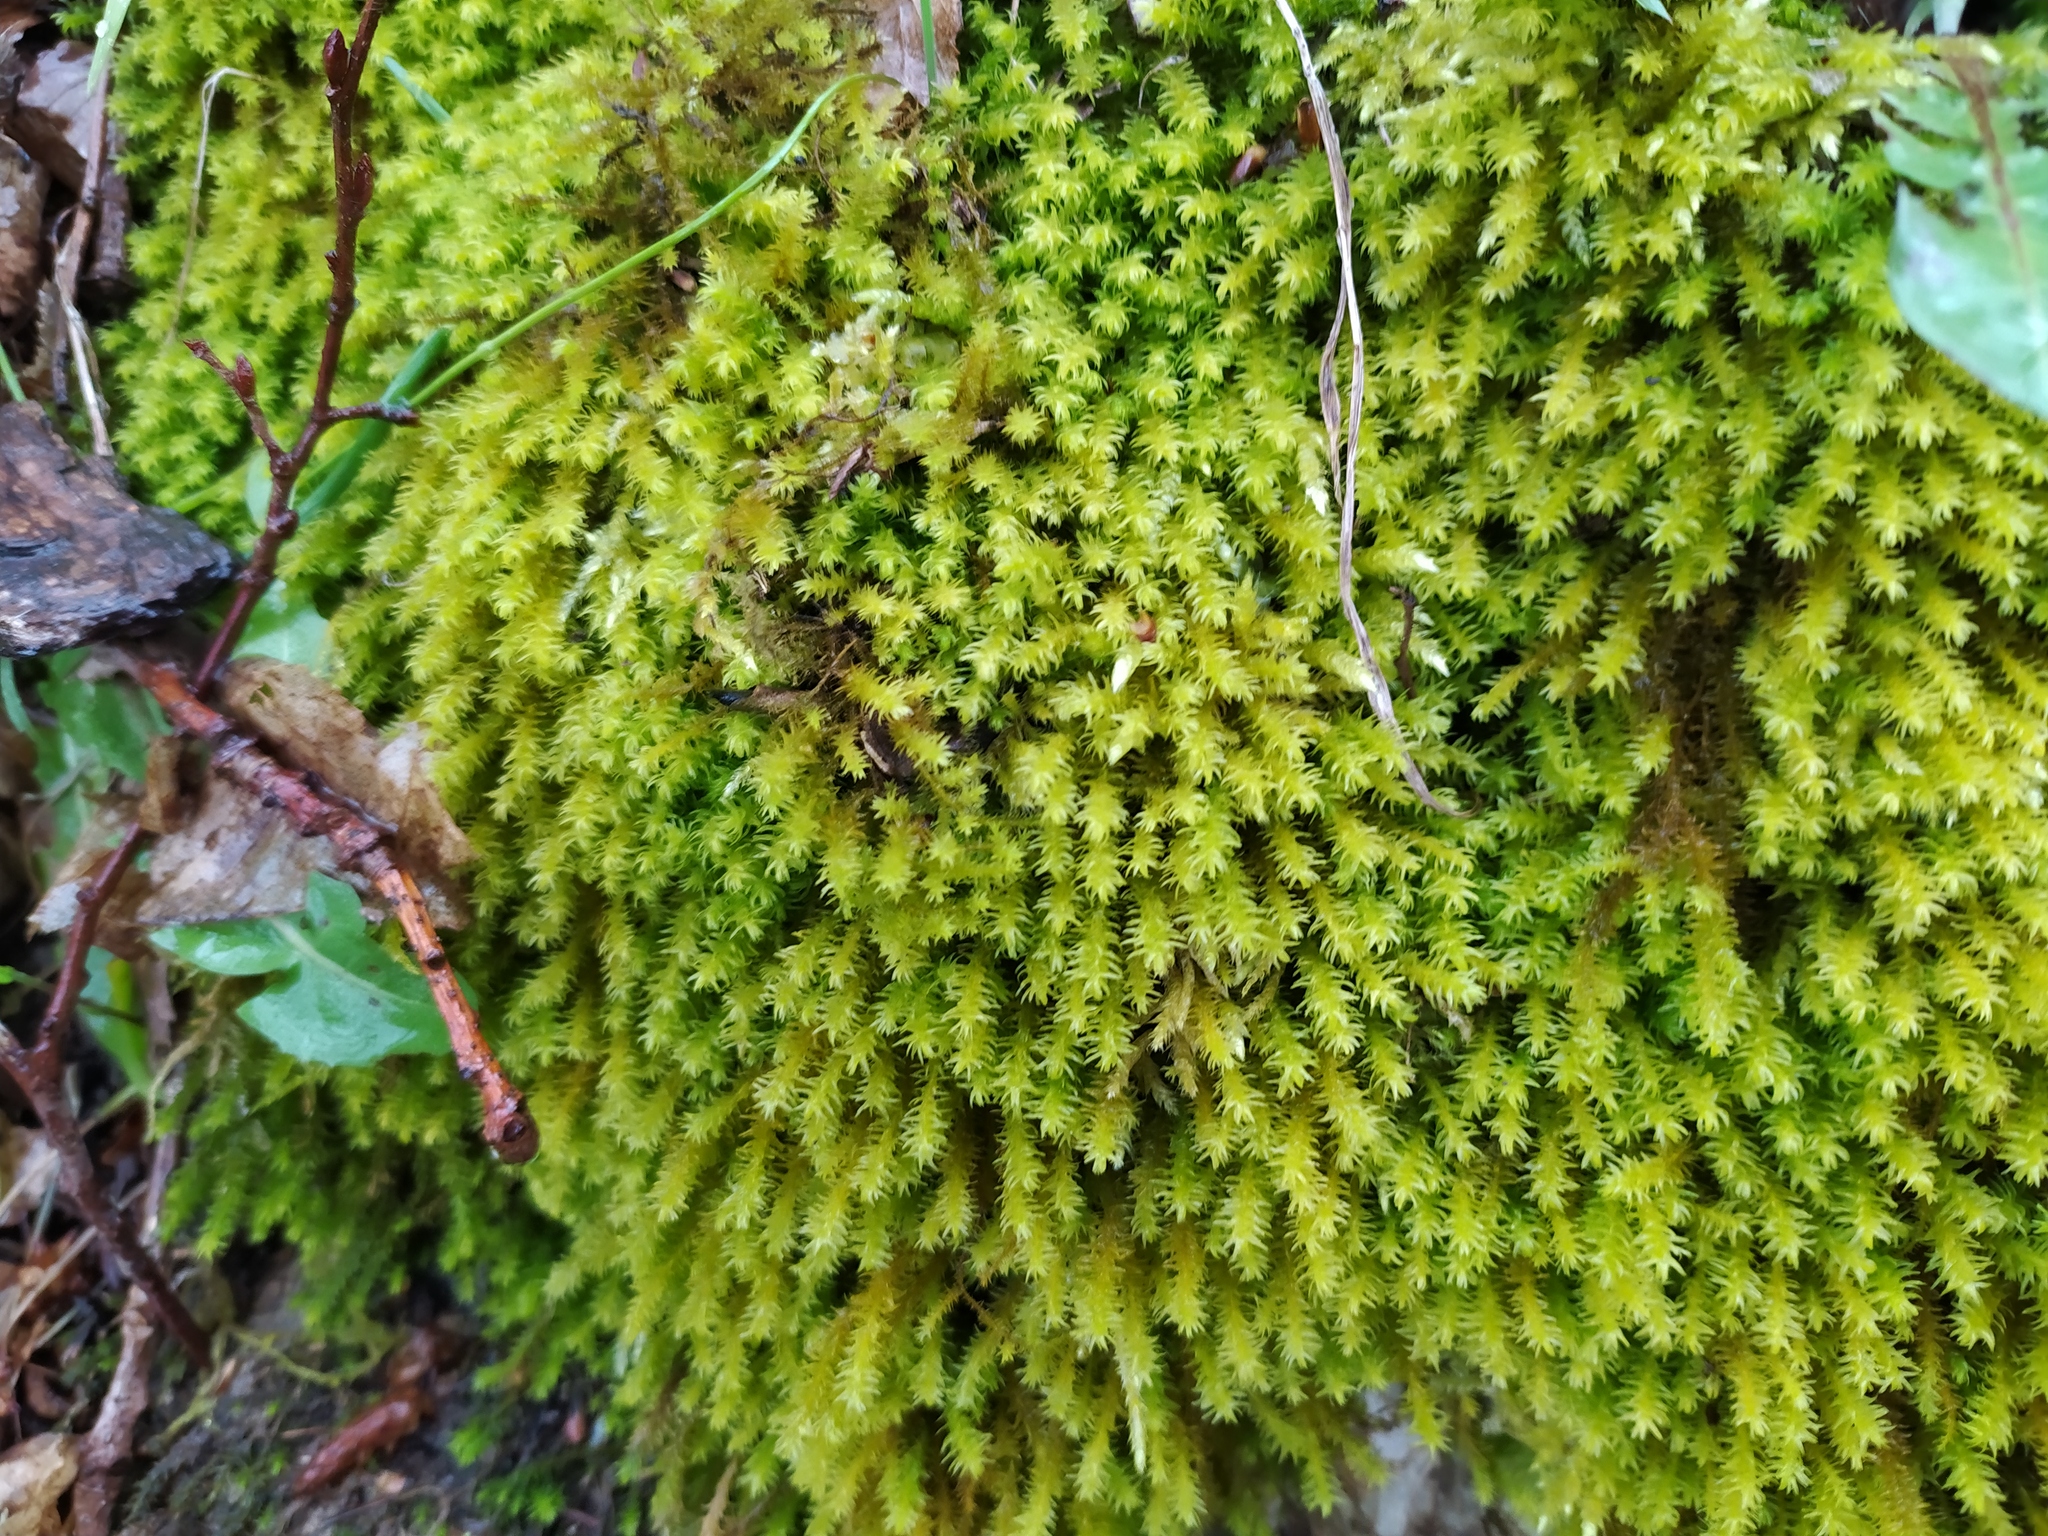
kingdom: Plantae
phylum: Bryophyta
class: Bryopsida
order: Hypnales
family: Anomodontaceae
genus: Anomodon
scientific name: Anomodon viticulosus
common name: Tall anomodon
